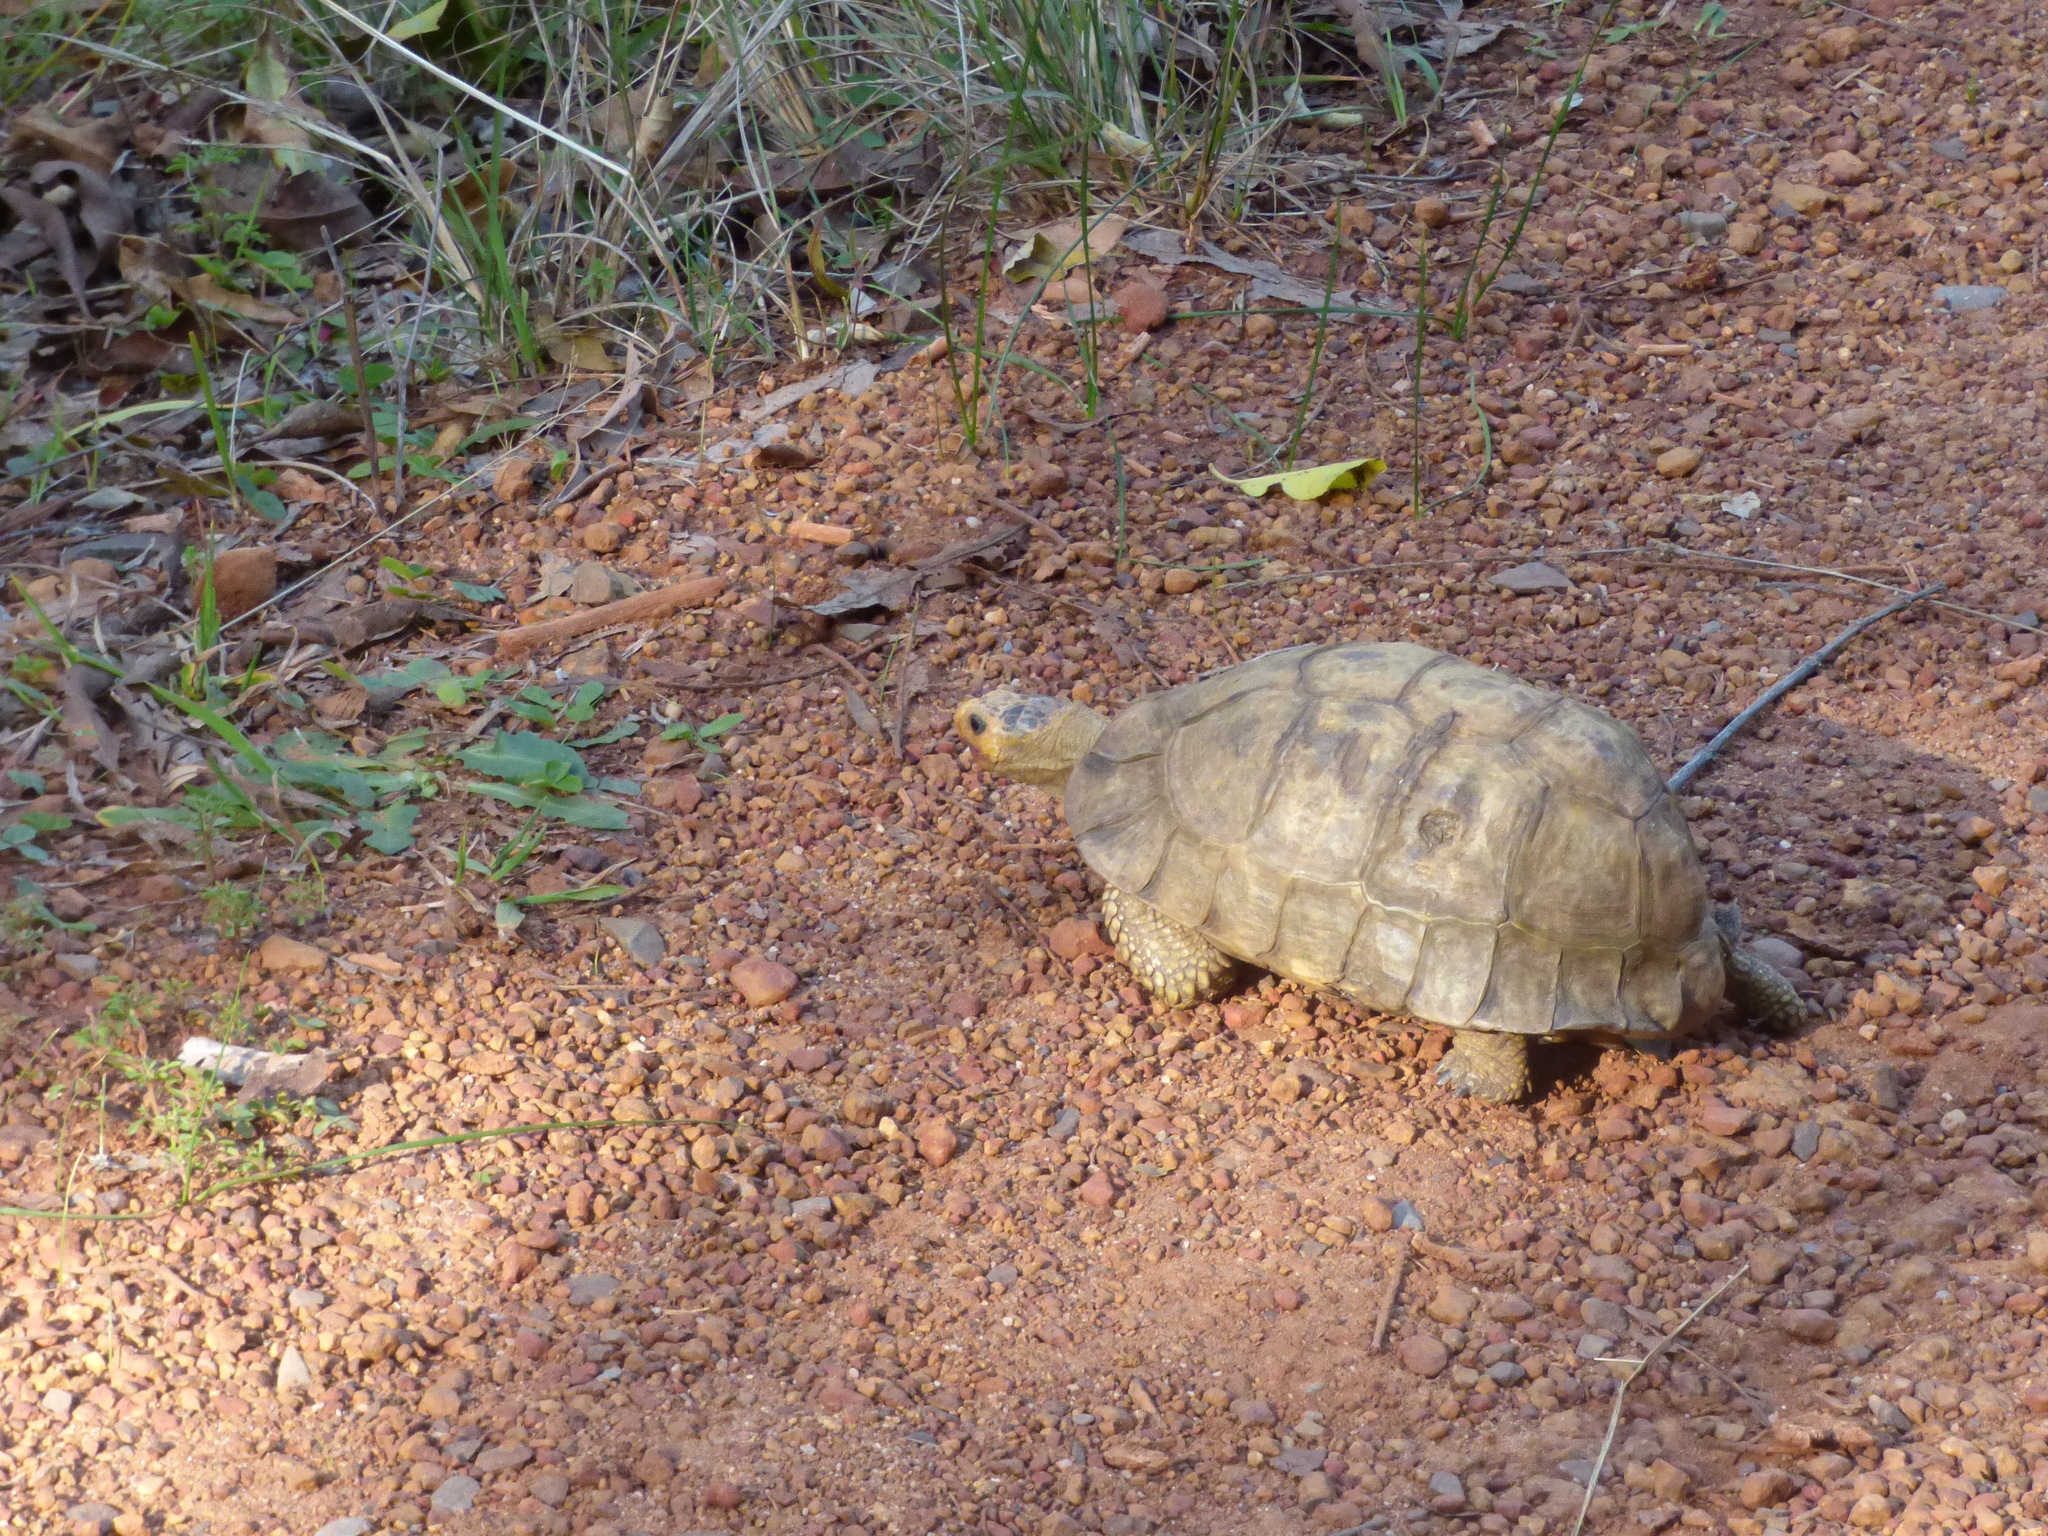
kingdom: Animalia
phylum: Chordata
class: Testudines
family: Testudinidae
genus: Chersina
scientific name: Chersina angulata
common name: South african bowsprit tortoise
